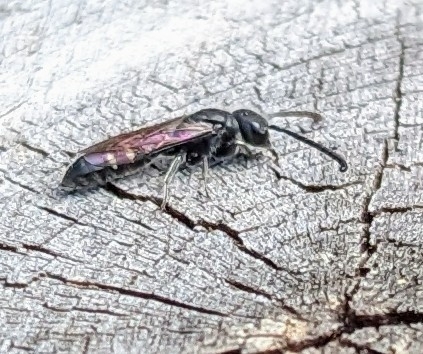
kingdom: Animalia
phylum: Arthropoda
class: Insecta
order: Hymenoptera
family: Sapygidae
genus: Sapyga
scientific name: Sapyga quinquepunctata
